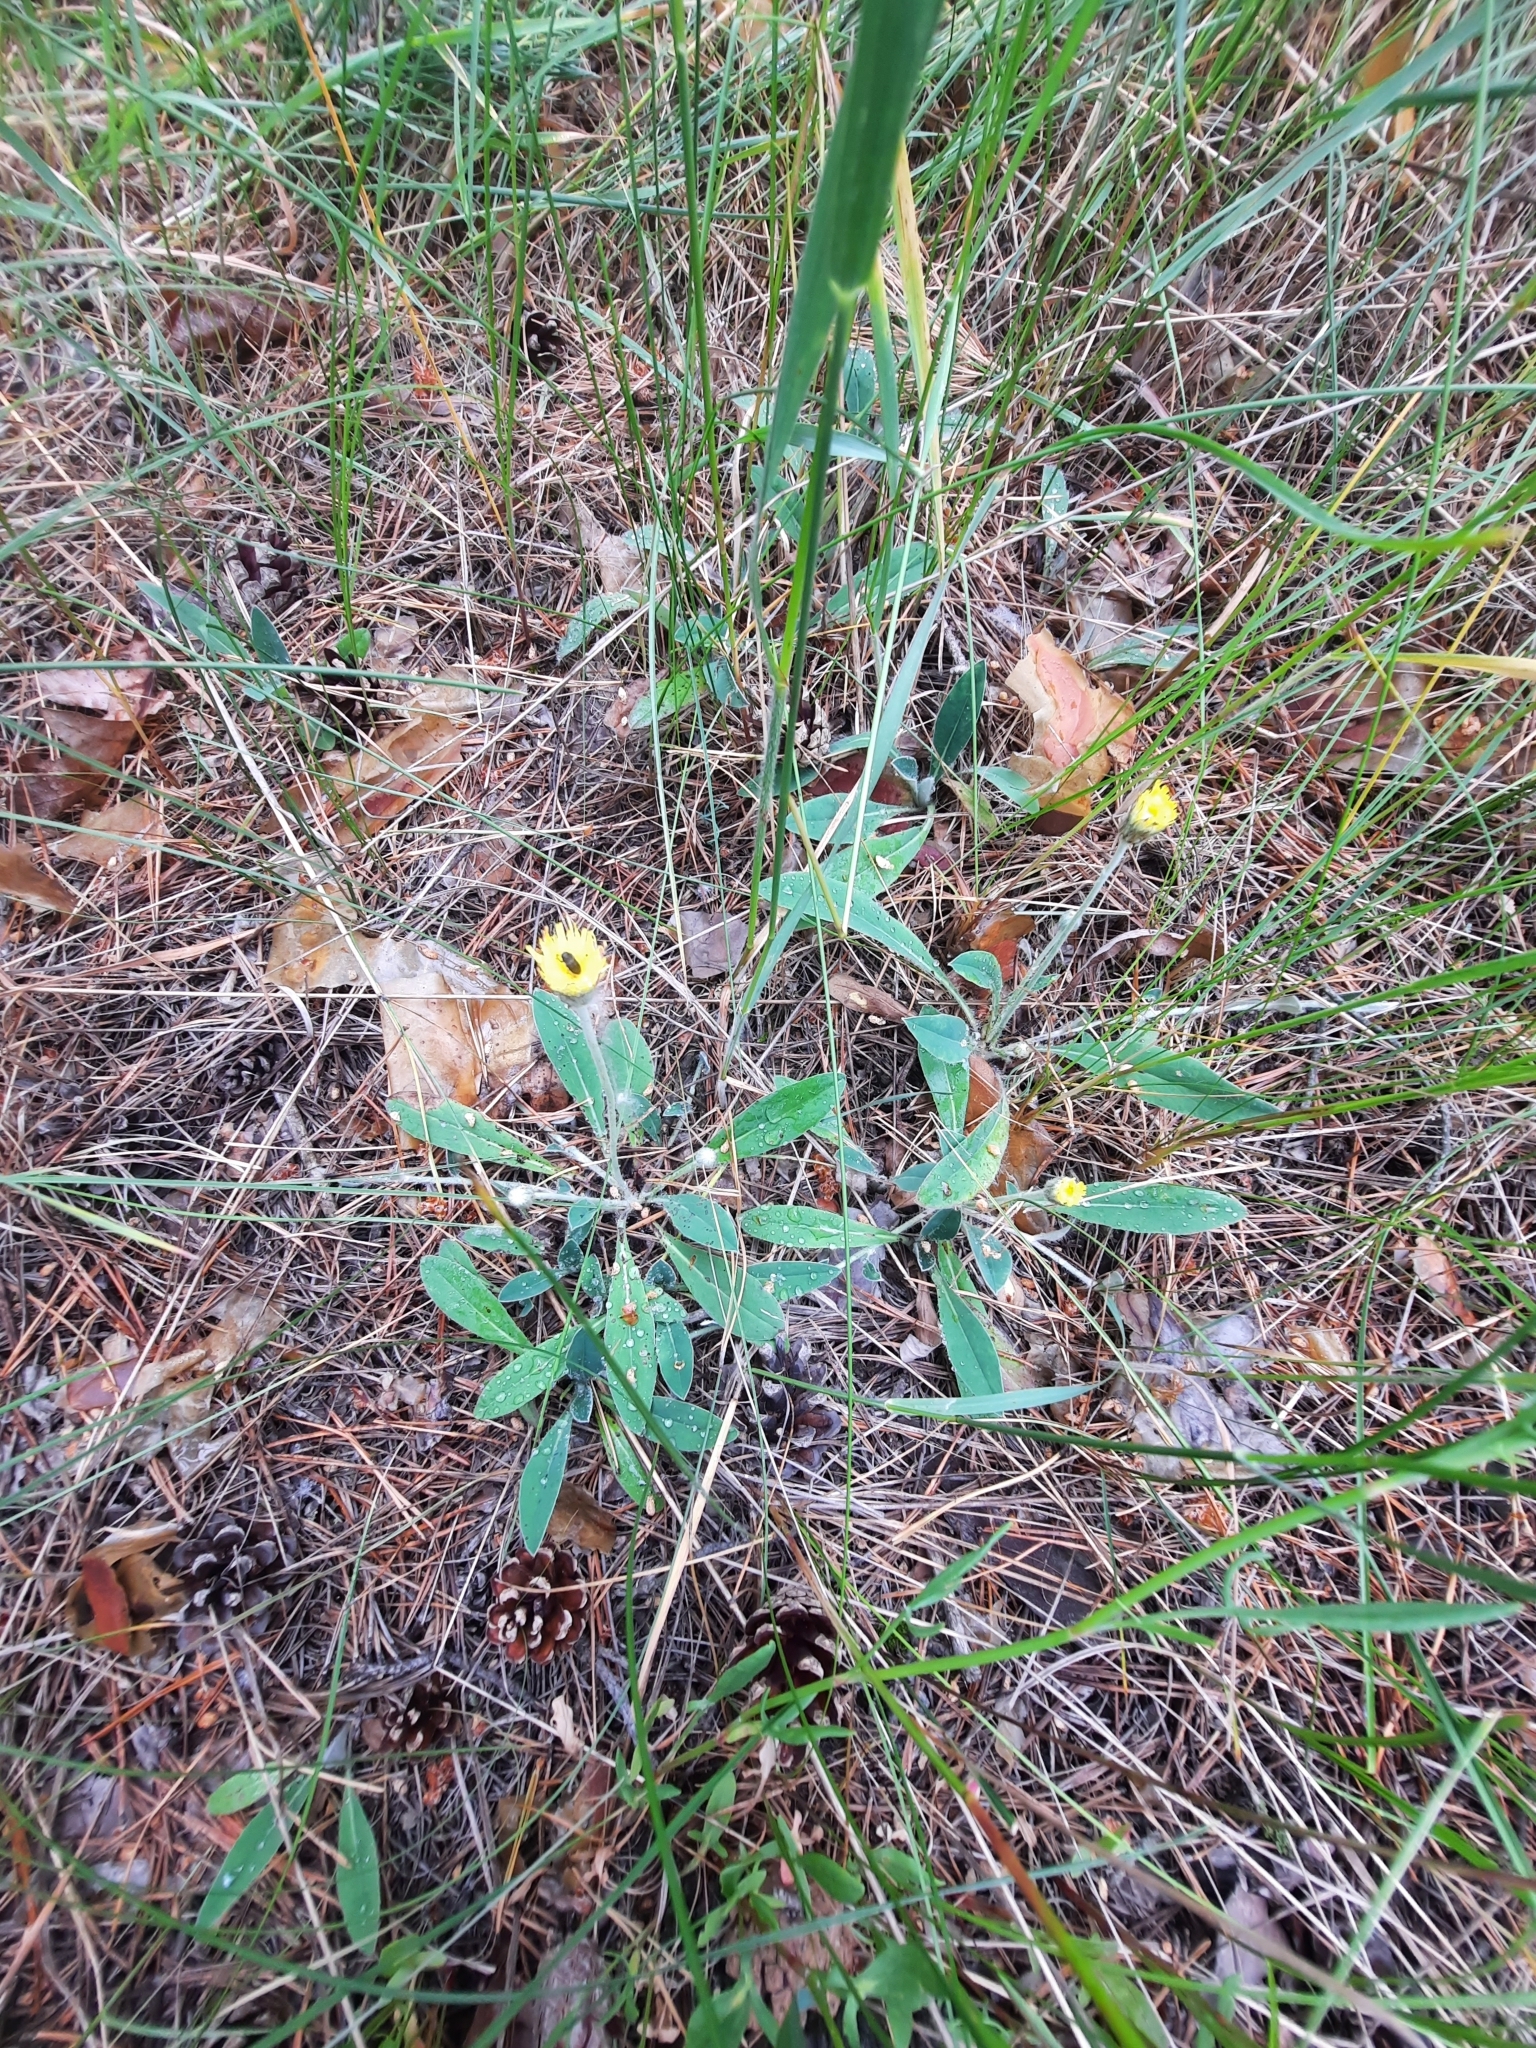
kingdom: Plantae
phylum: Tracheophyta
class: Magnoliopsida
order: Asterales
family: Asteraceae
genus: Pilosella
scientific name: Pilosella officinarum
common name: Mouse-ear hawkweed
